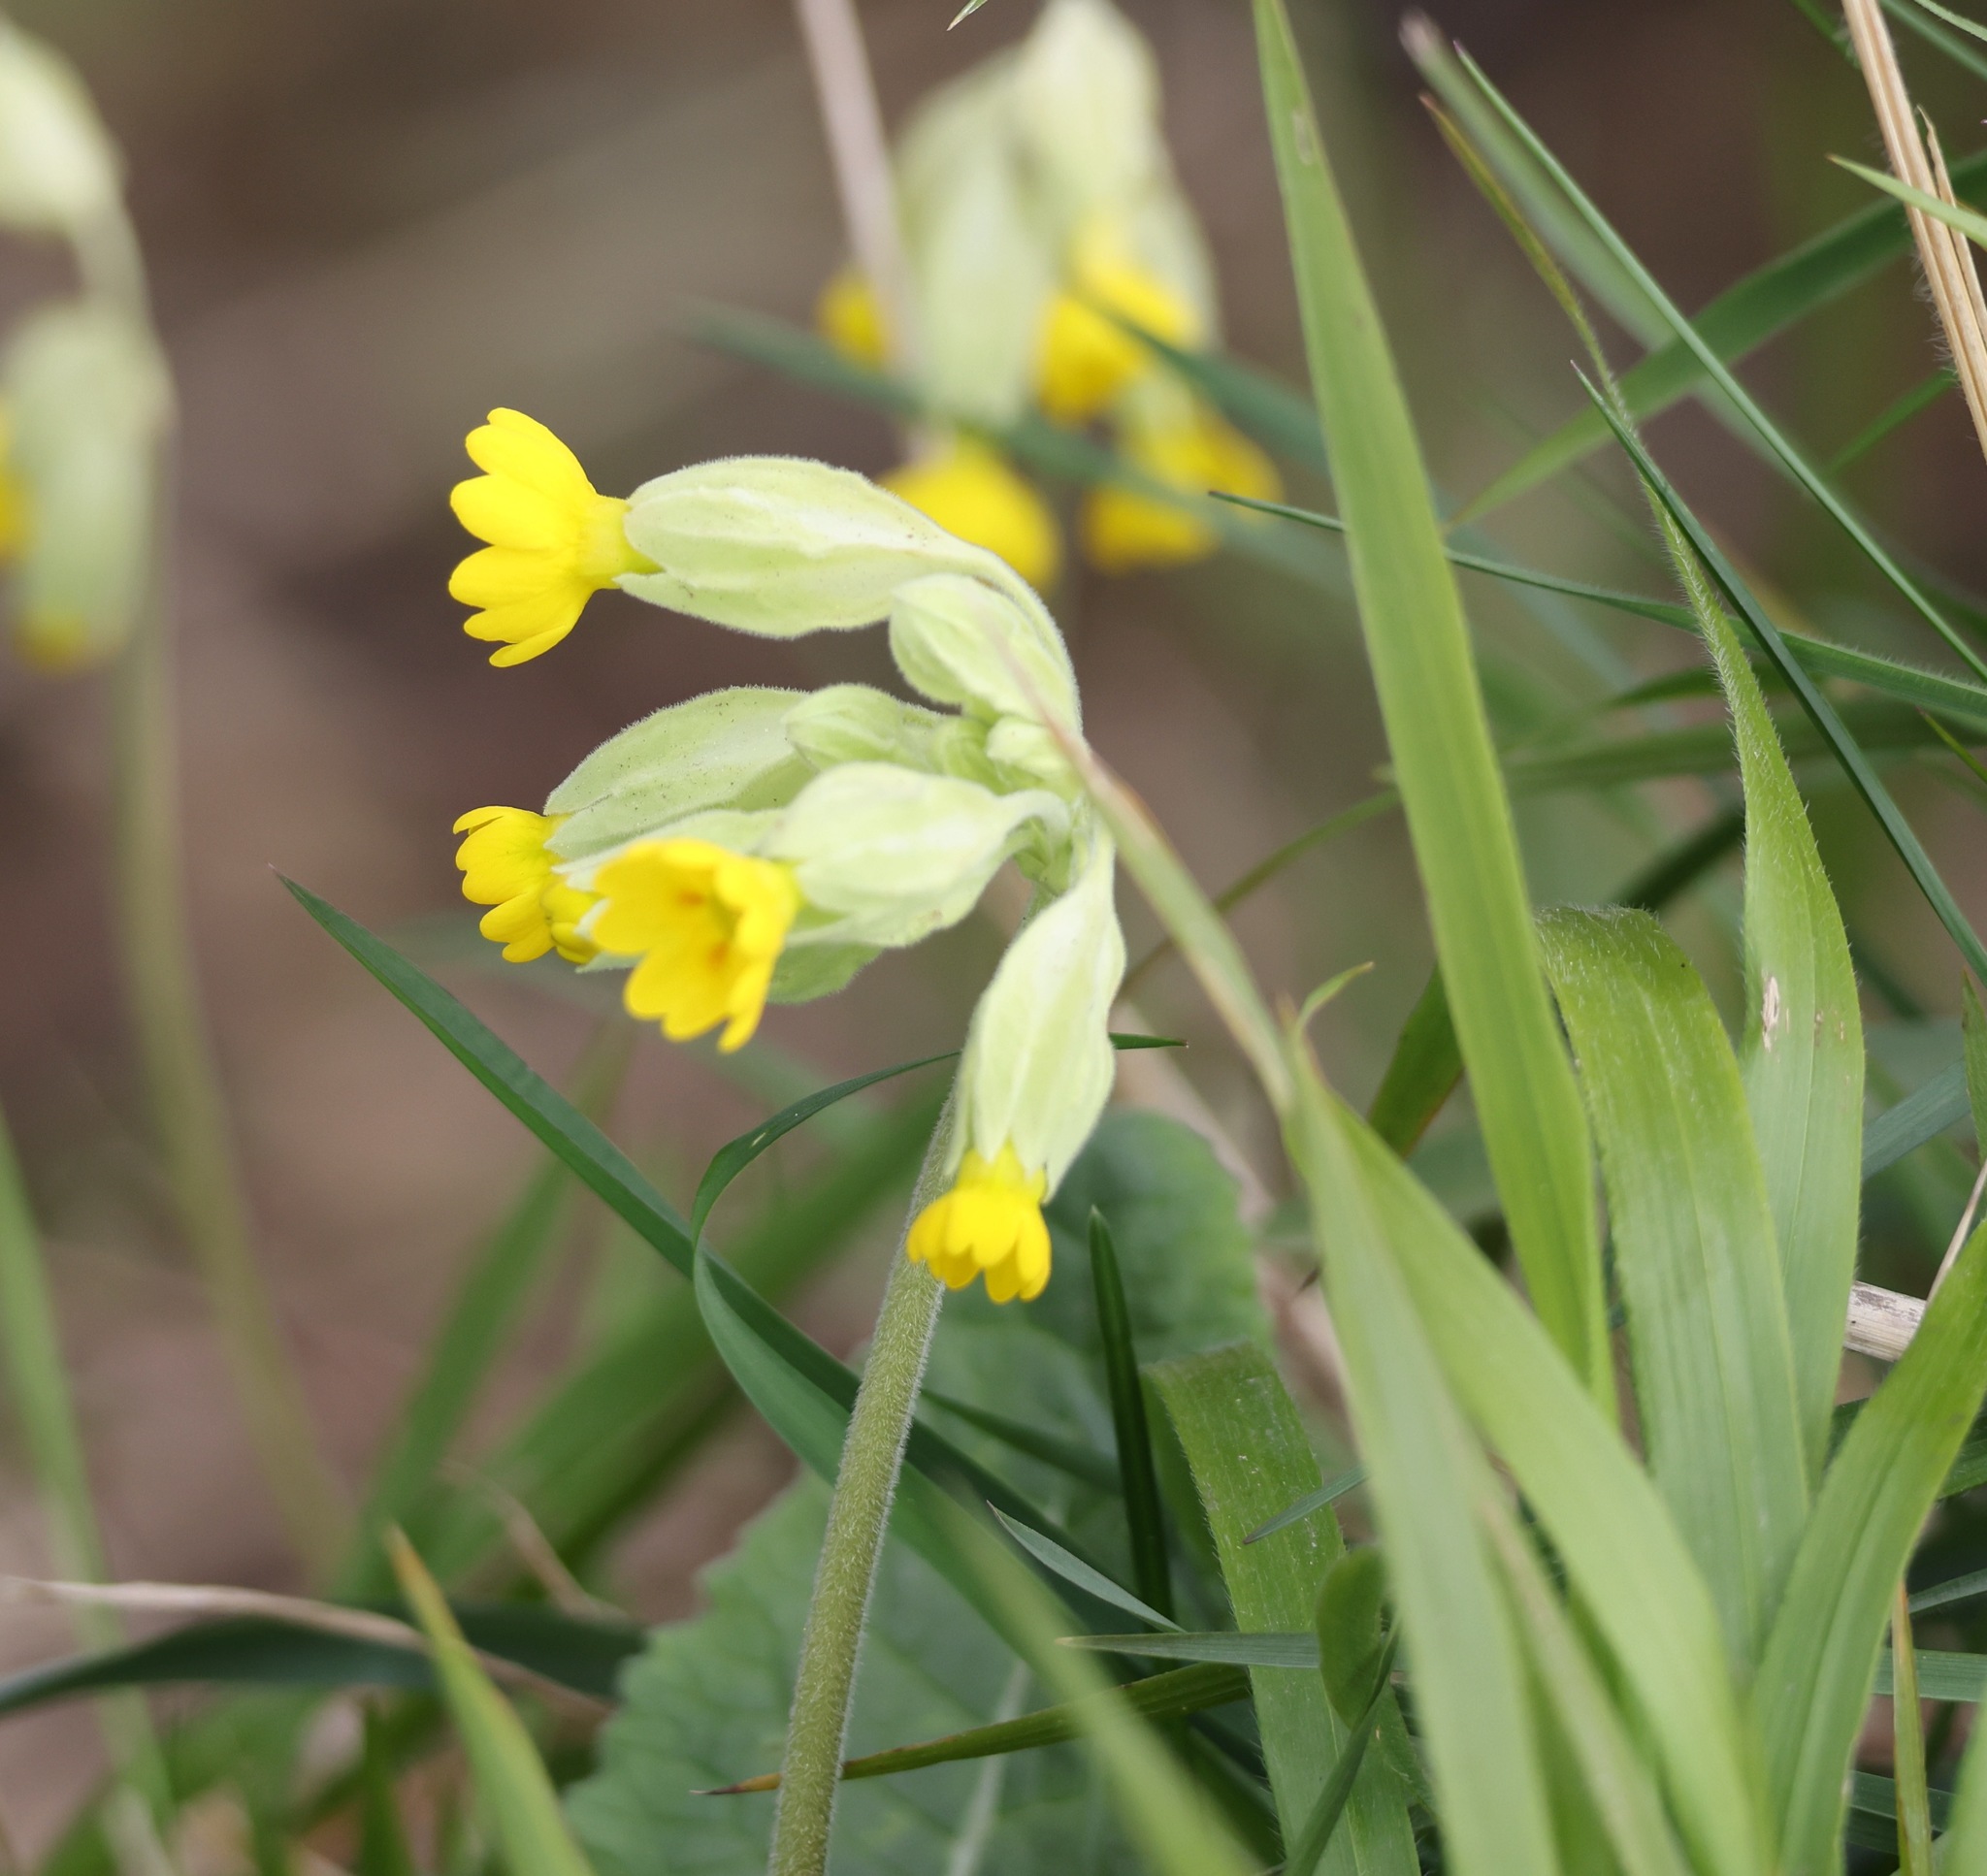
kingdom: Plantae
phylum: Tracheophyta
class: Magnoliopsida
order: Ericales
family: Primulaceae
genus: Primula
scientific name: Primula veris
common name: Cowslip
